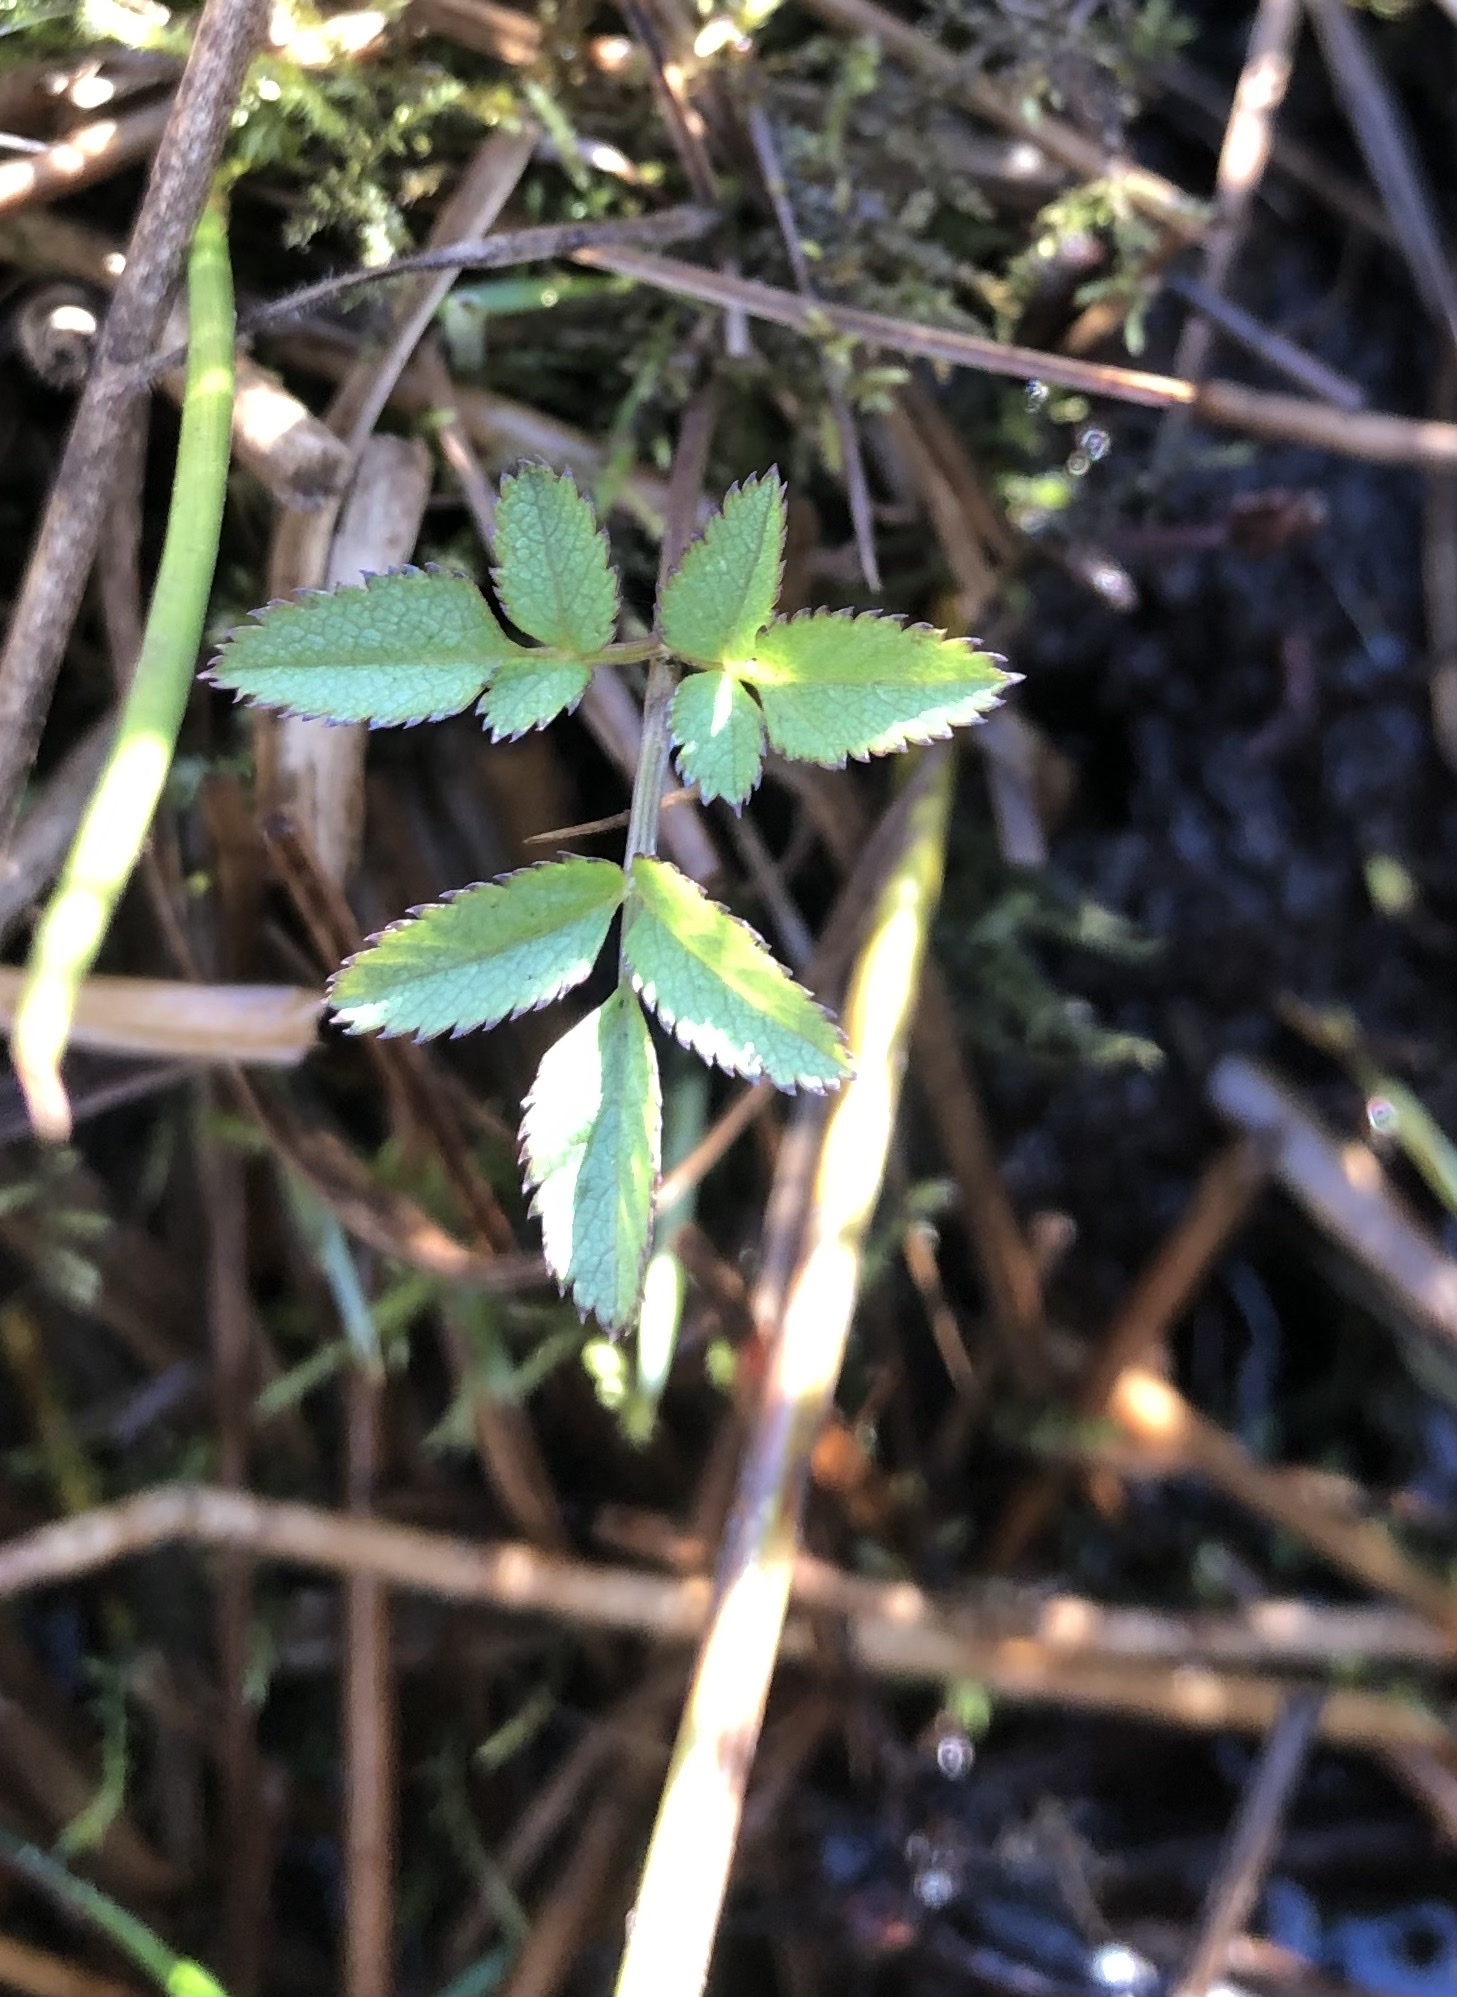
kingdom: Plantae
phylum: Tracheophyta
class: Magnoliopsida
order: Apiales
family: Apiaceae
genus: Angelica
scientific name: Angelica sylvestris
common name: Wild angelica
